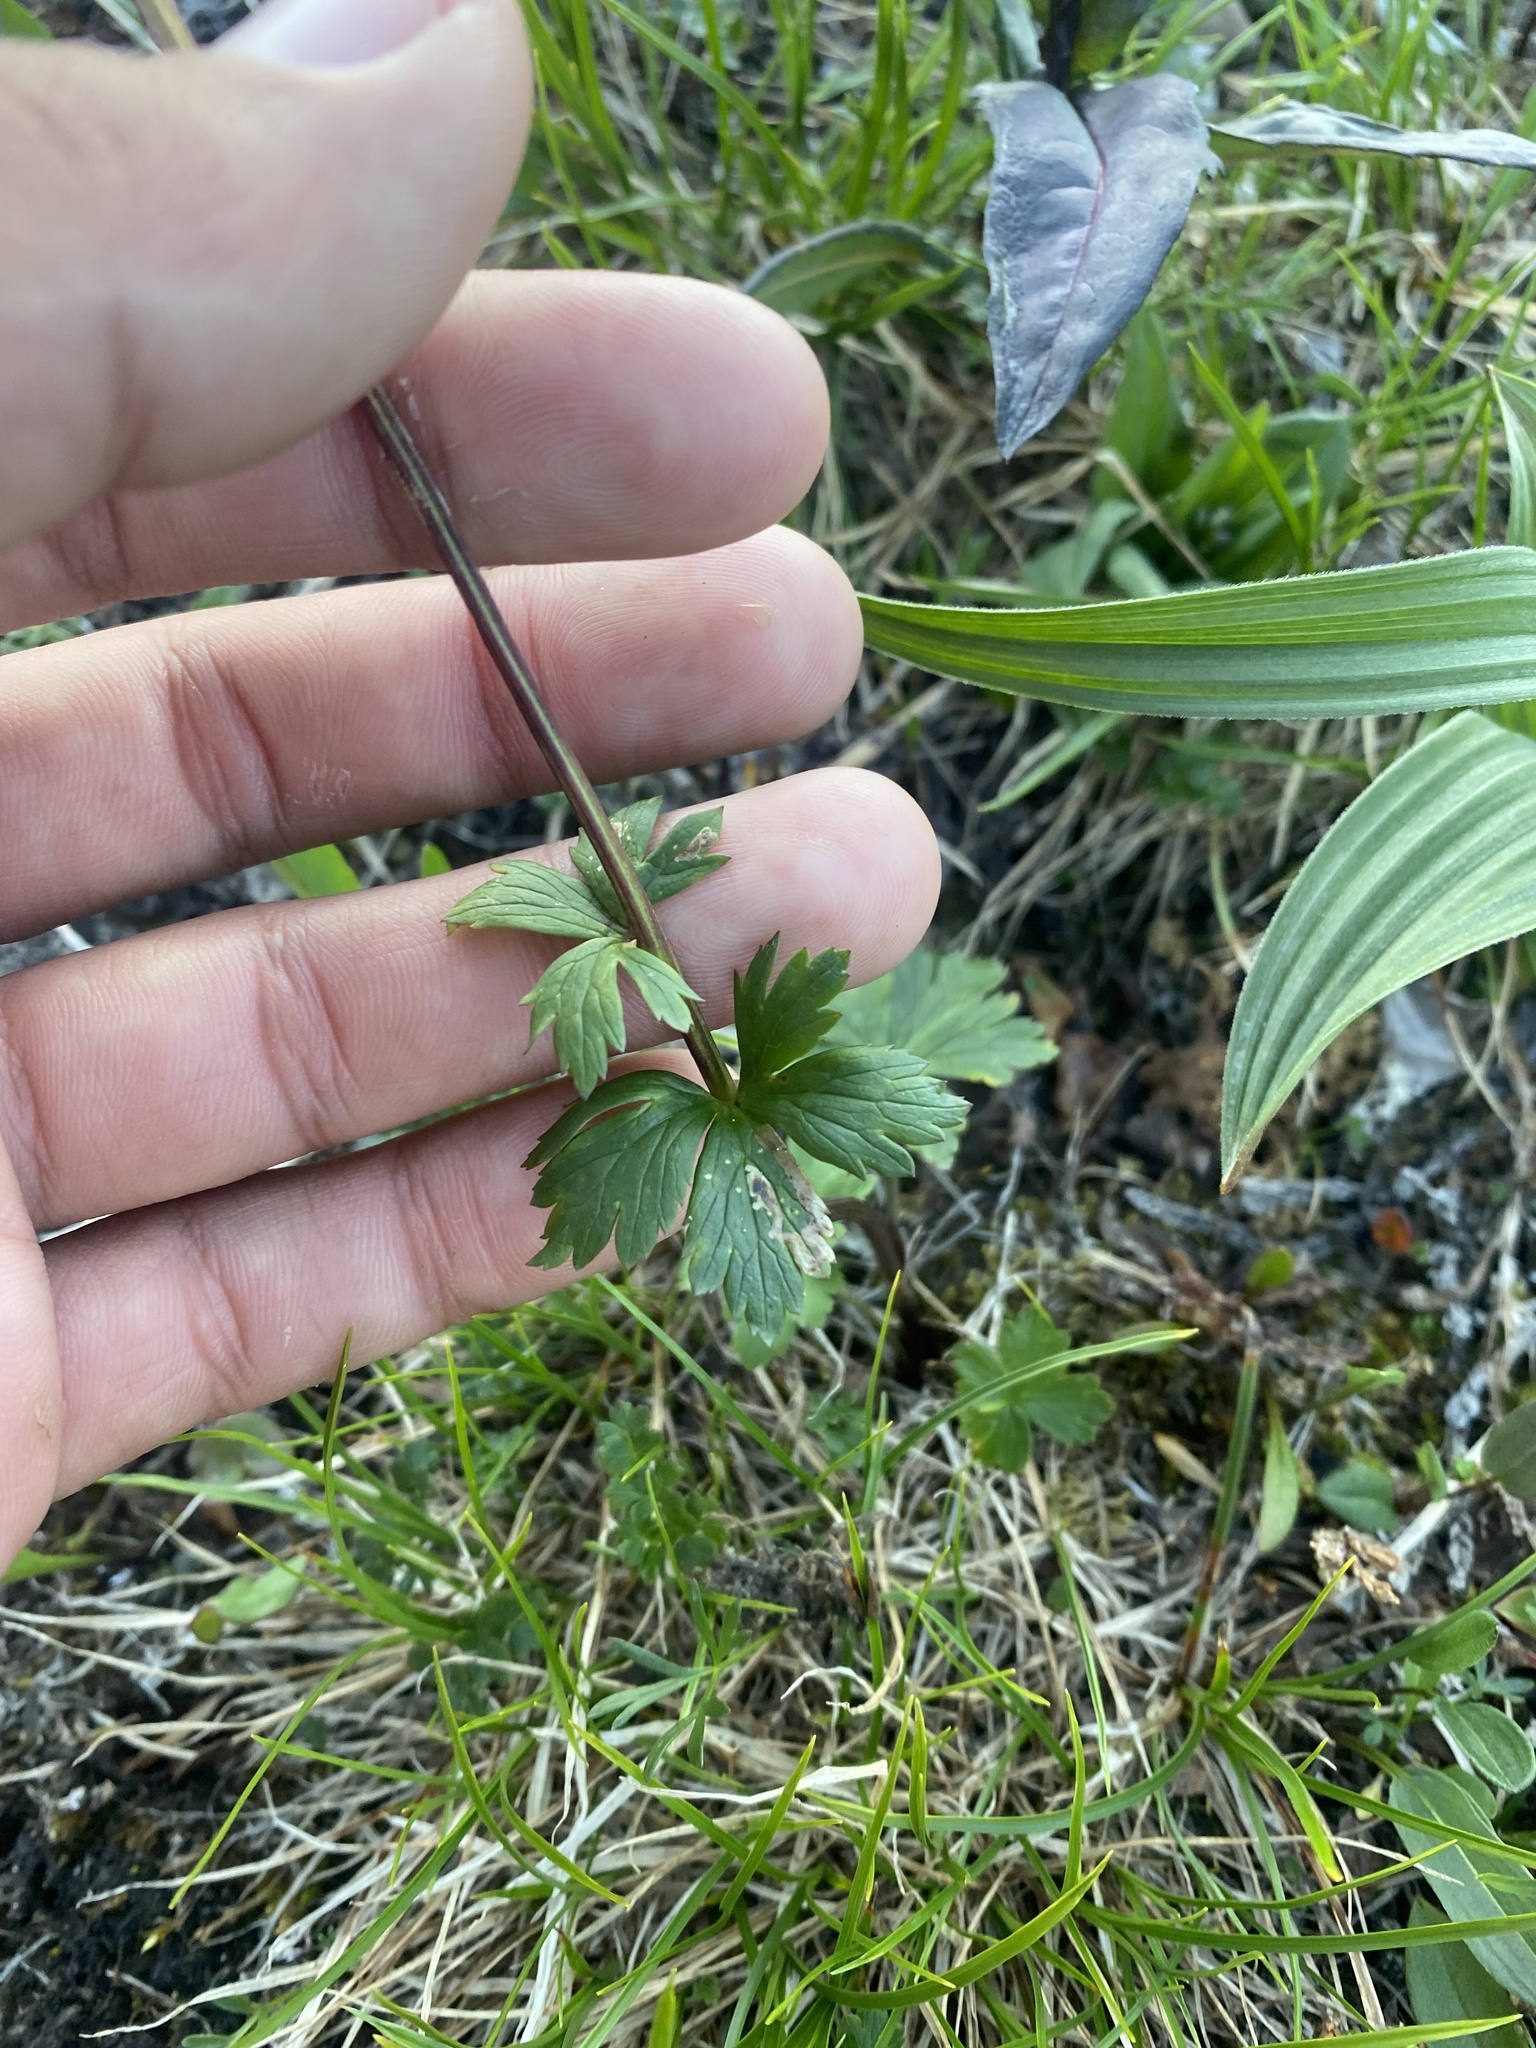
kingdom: Plantae
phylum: Tracheophyta
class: Magnoliopsida
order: Ranunculales
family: Ranunculaceae
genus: Trollius
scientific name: Trollius asiaticus
